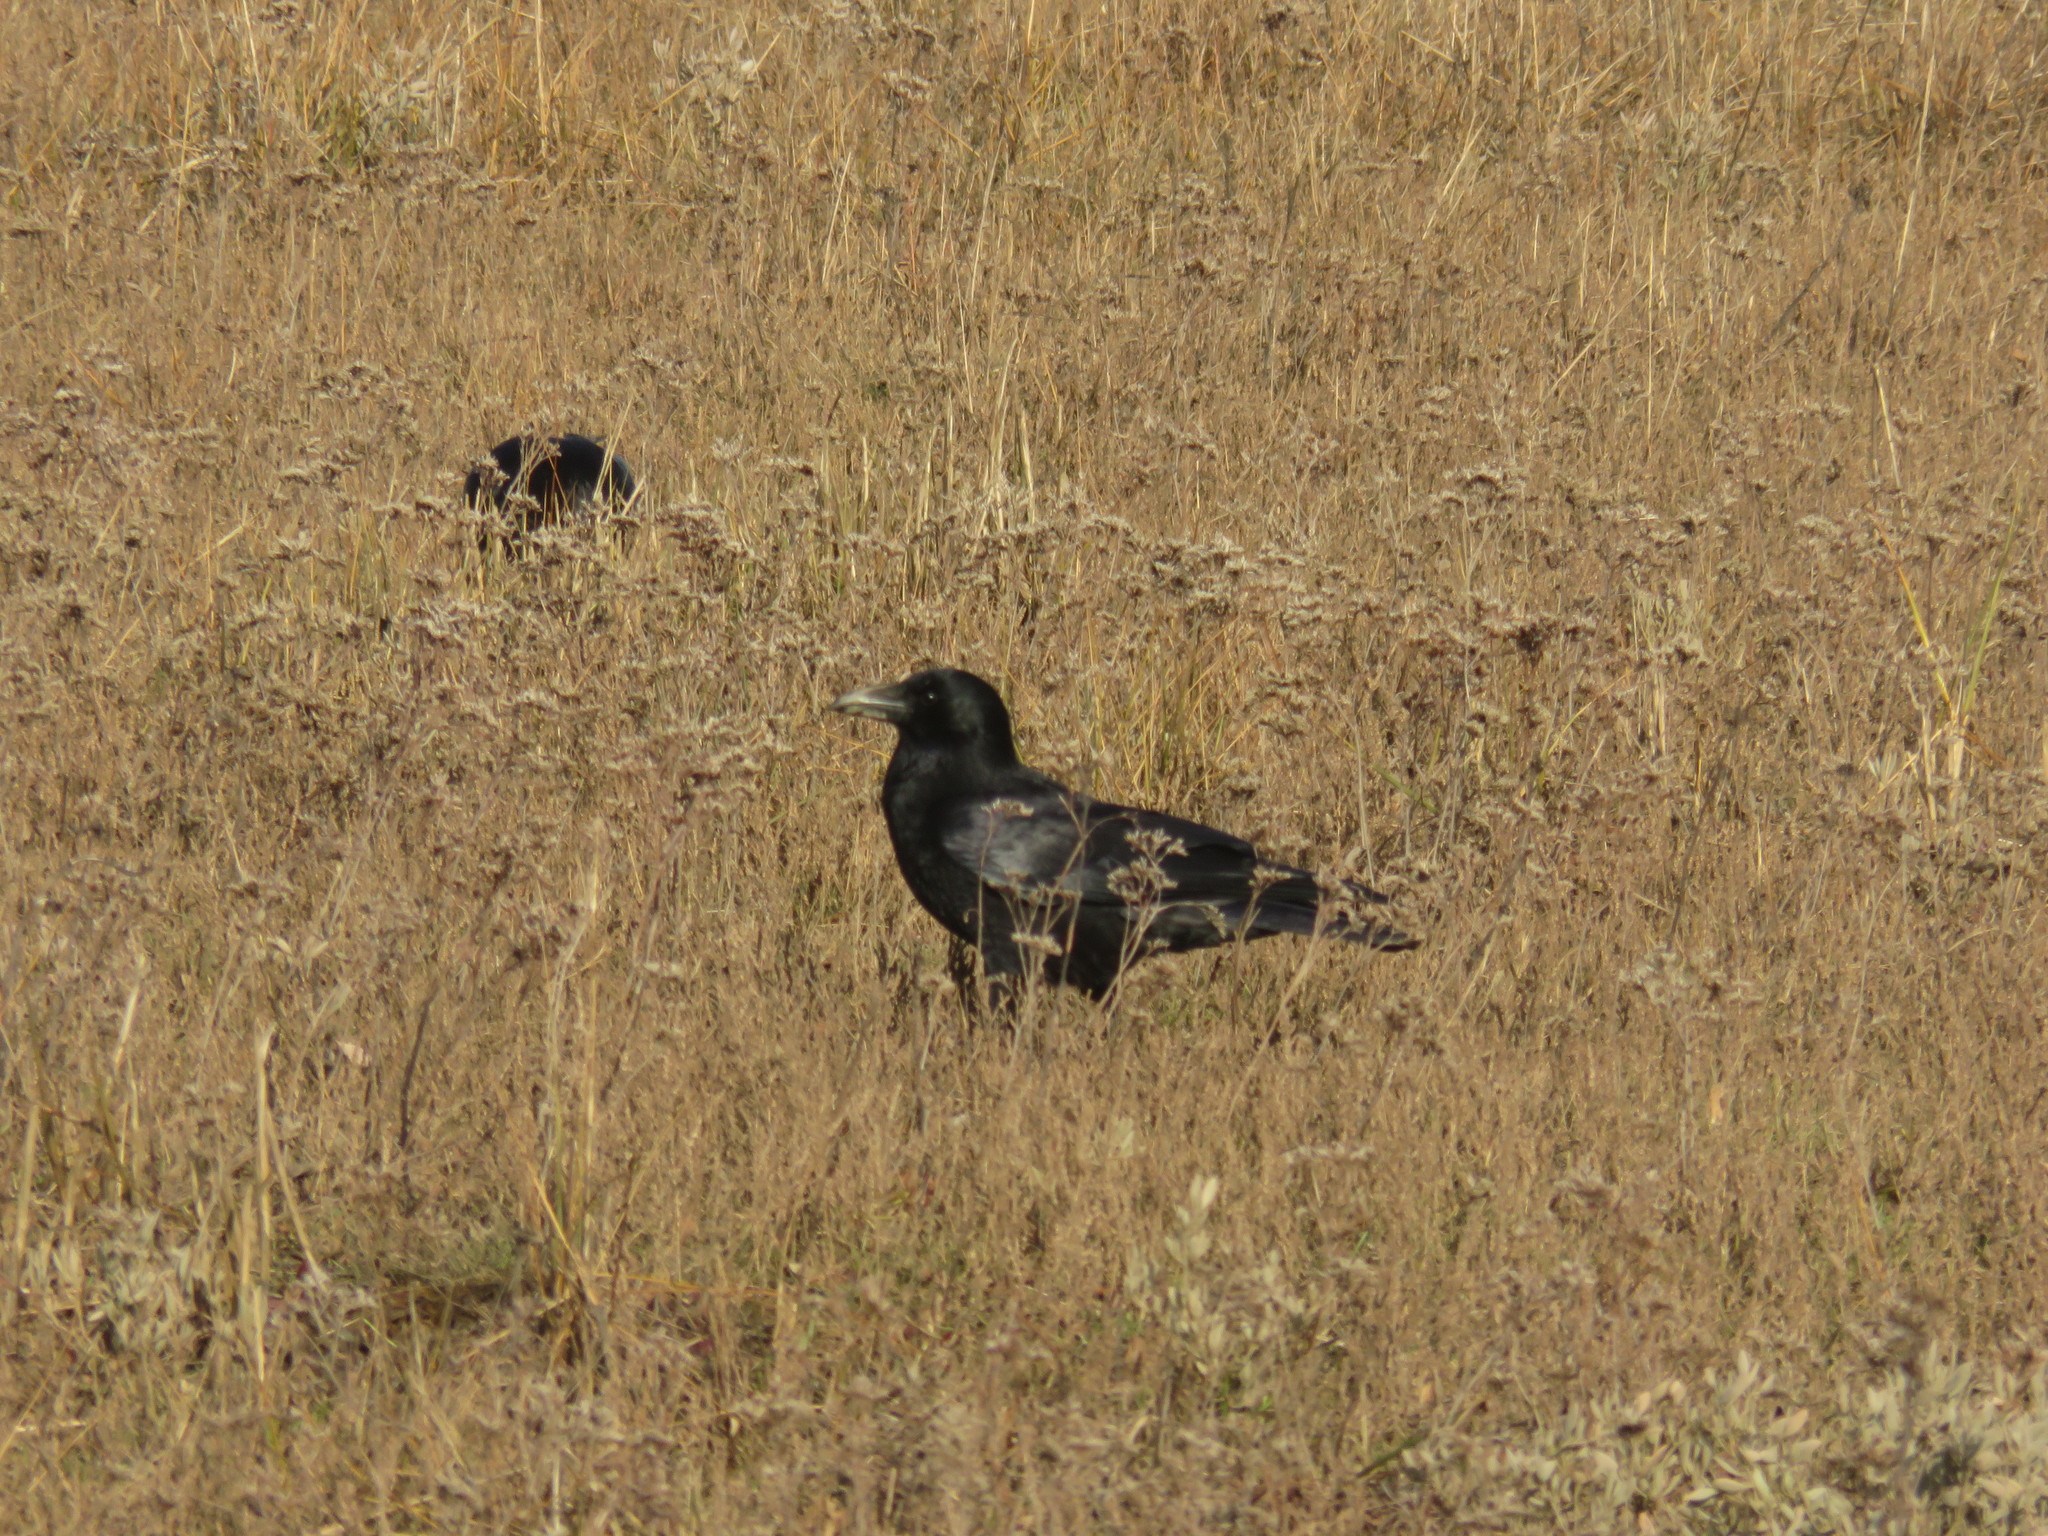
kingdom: Animalia
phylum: Chordata
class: Aves
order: Passeriformes
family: Corvidae
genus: Corvus
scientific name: Corvus corone
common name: Carrion crow
